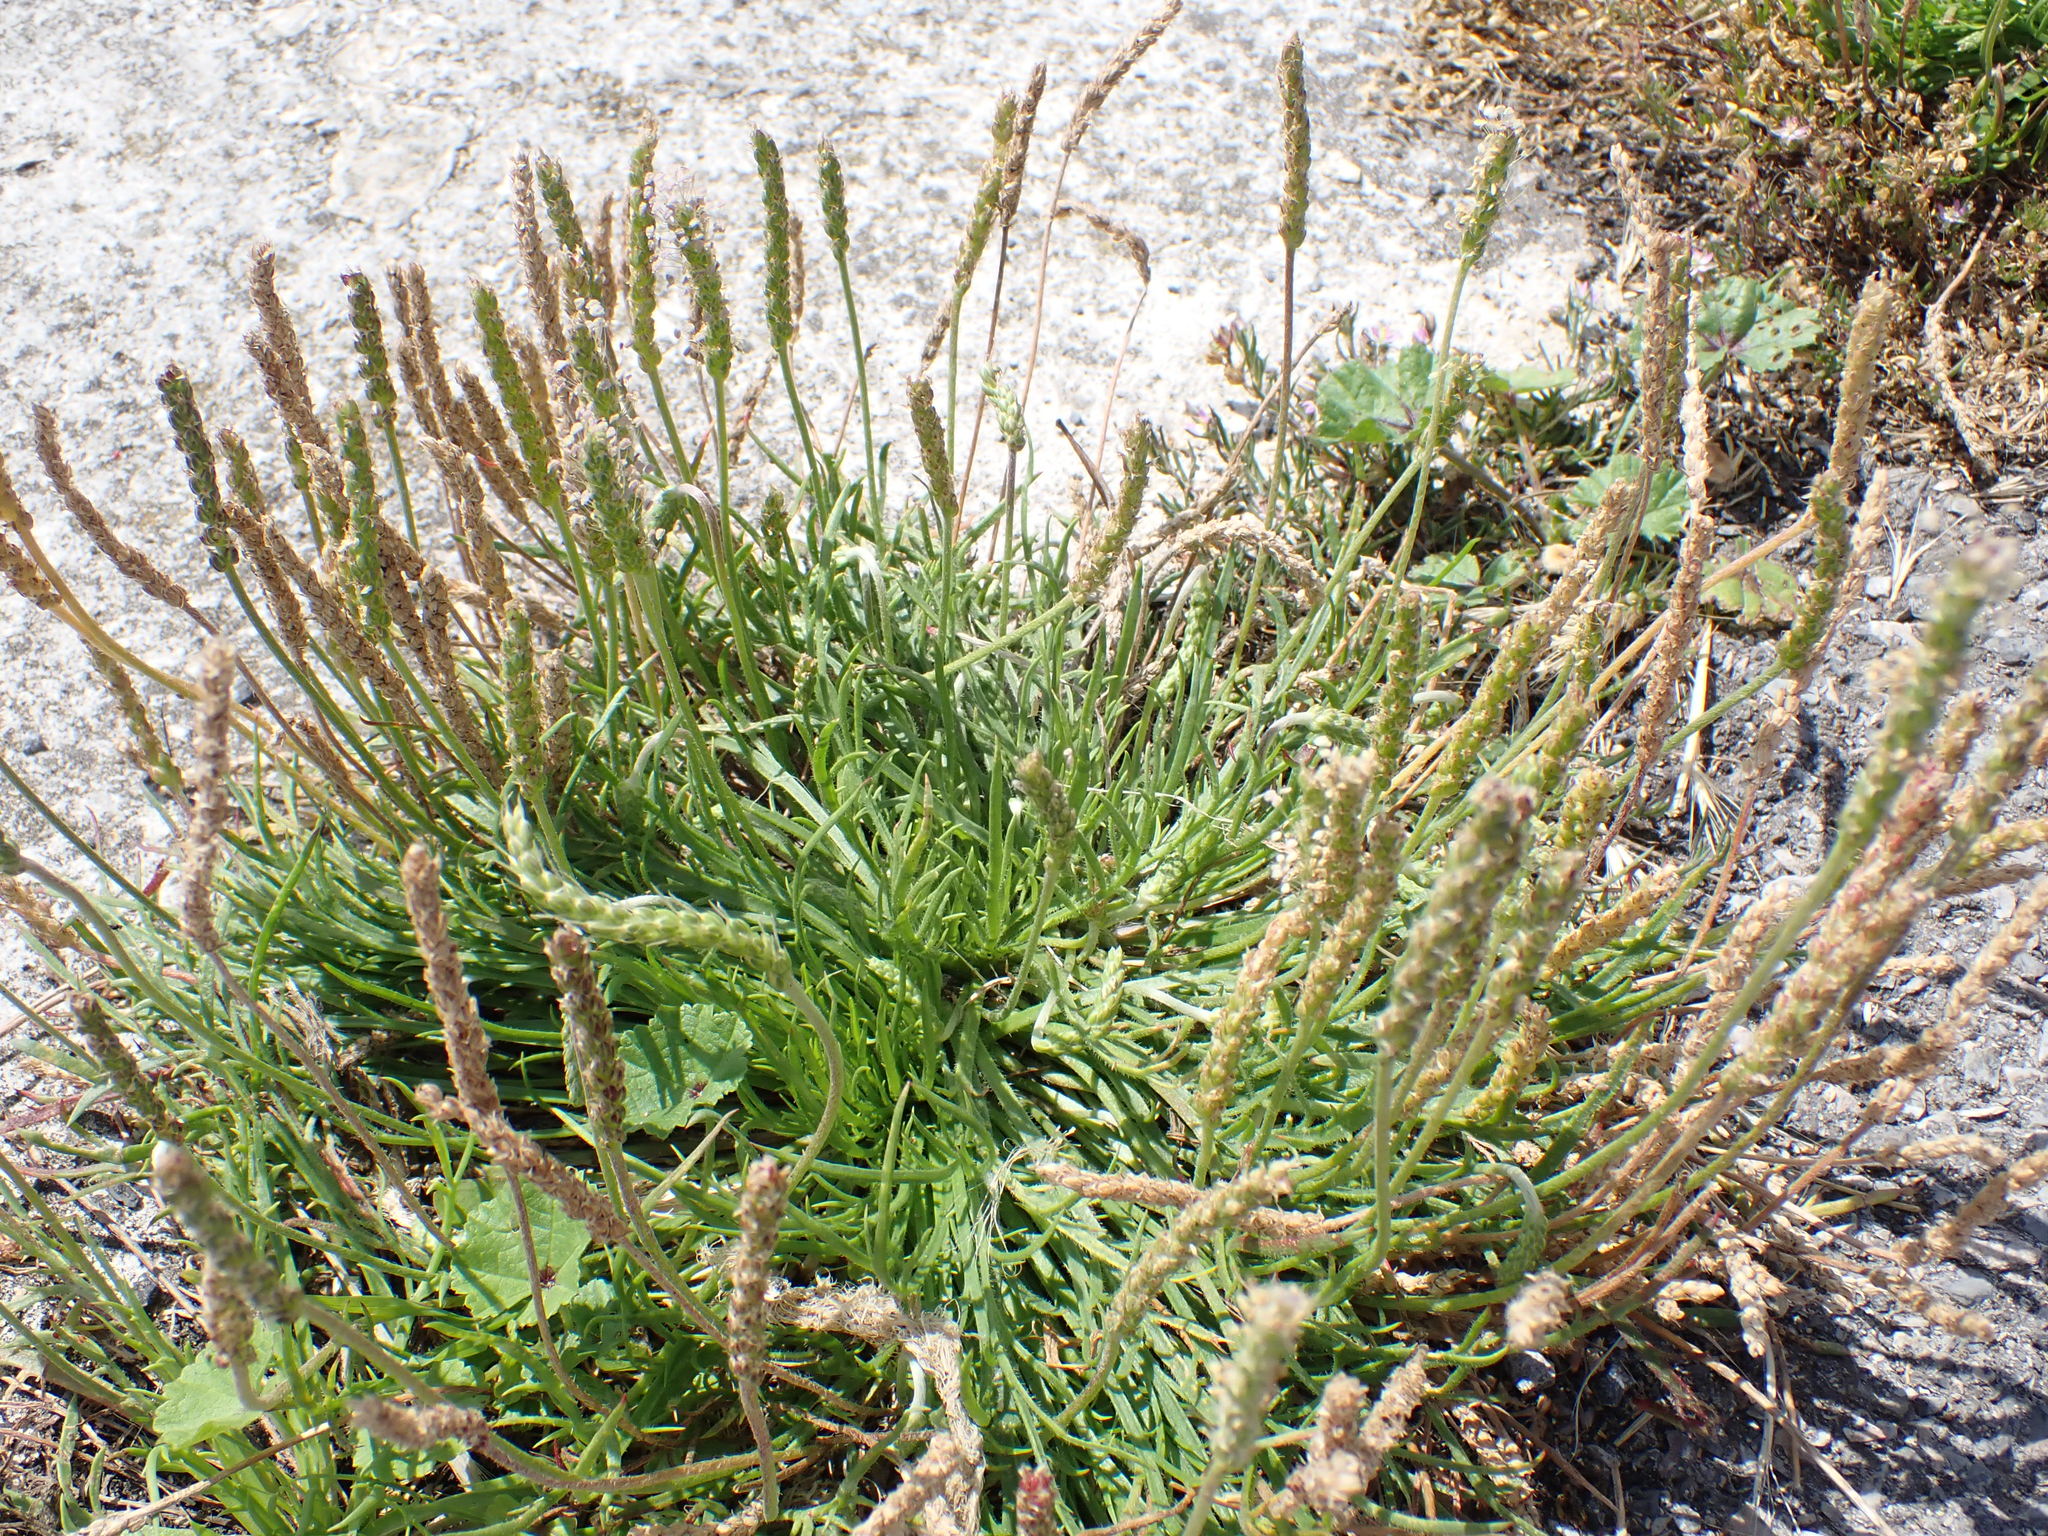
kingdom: Plantae
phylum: Tracheophyta
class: Magnoliopsida
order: Lamiales
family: Plantaginaceae
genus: Plantago
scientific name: Plantago coronopus
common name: Buck's-horn plantain
